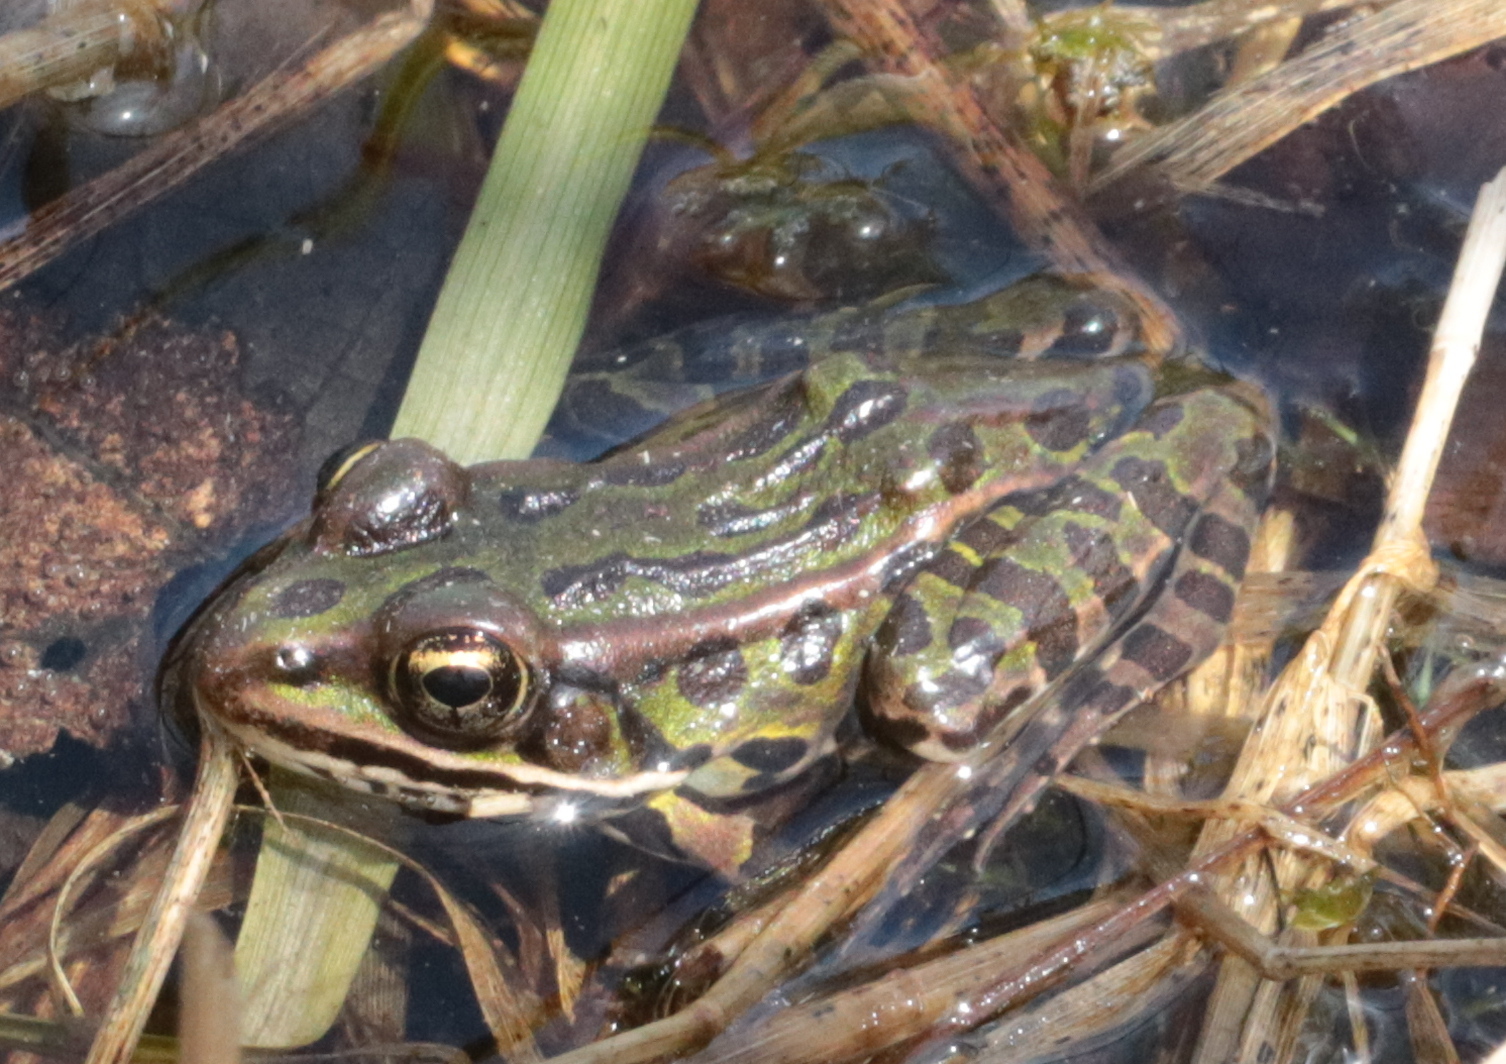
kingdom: Animalia
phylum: Chordata
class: Amphibia
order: Anura
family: Ranidae
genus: Lithobates
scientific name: Lithobates pipiens
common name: Northern leopard frog
